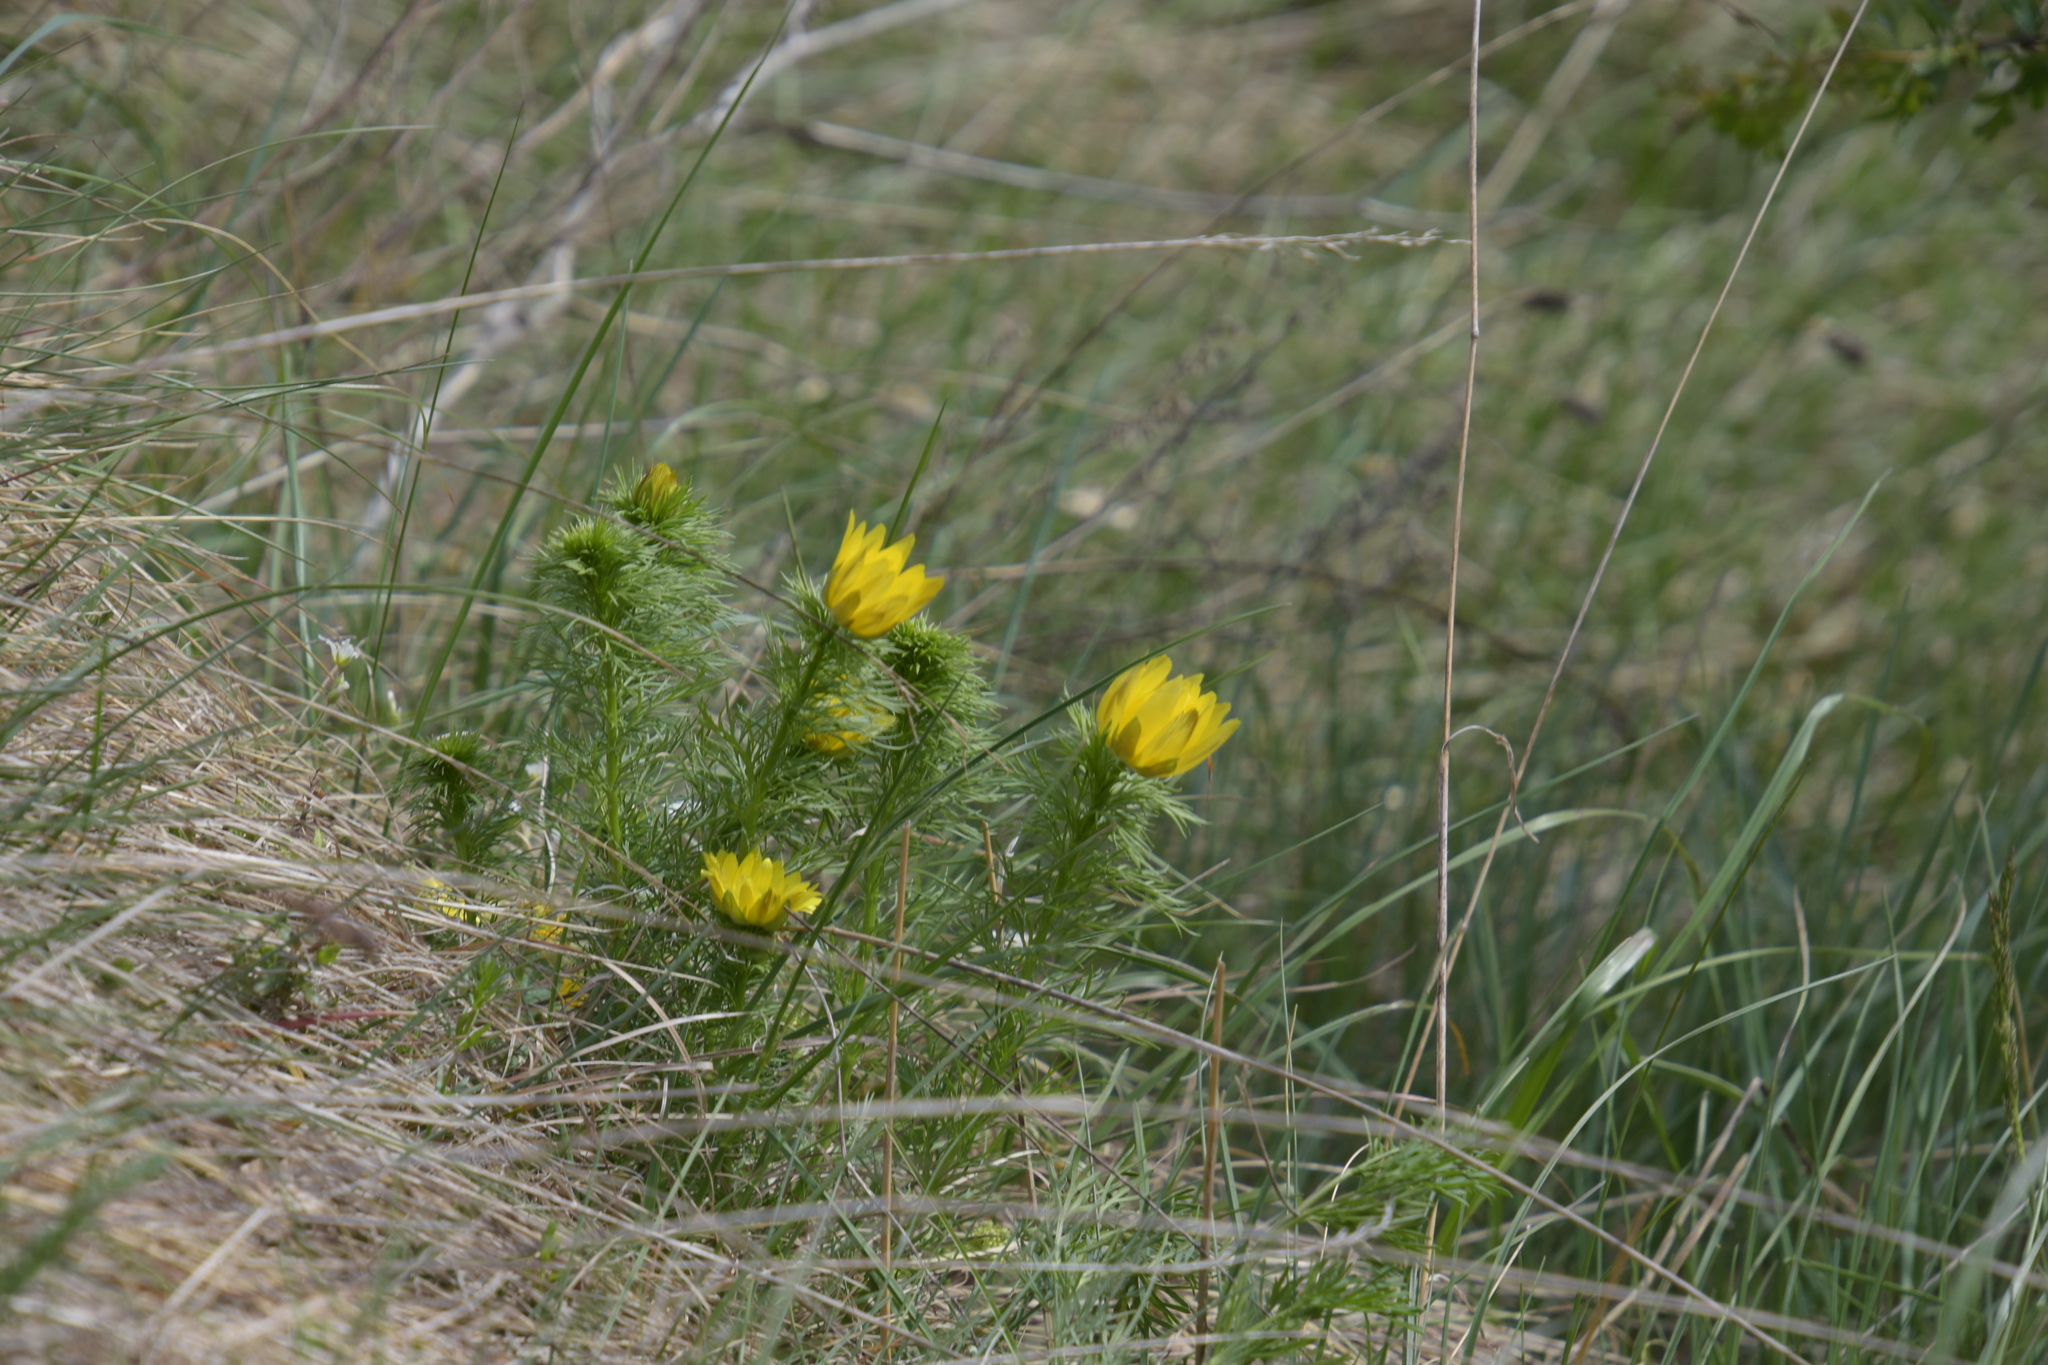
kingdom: Plantae
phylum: Tracheophyta
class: Magnoliopsida
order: Ranunculales
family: Ranunculaceae
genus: Adonis
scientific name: Adonis vernalis
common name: Yellow pheasants-eye
